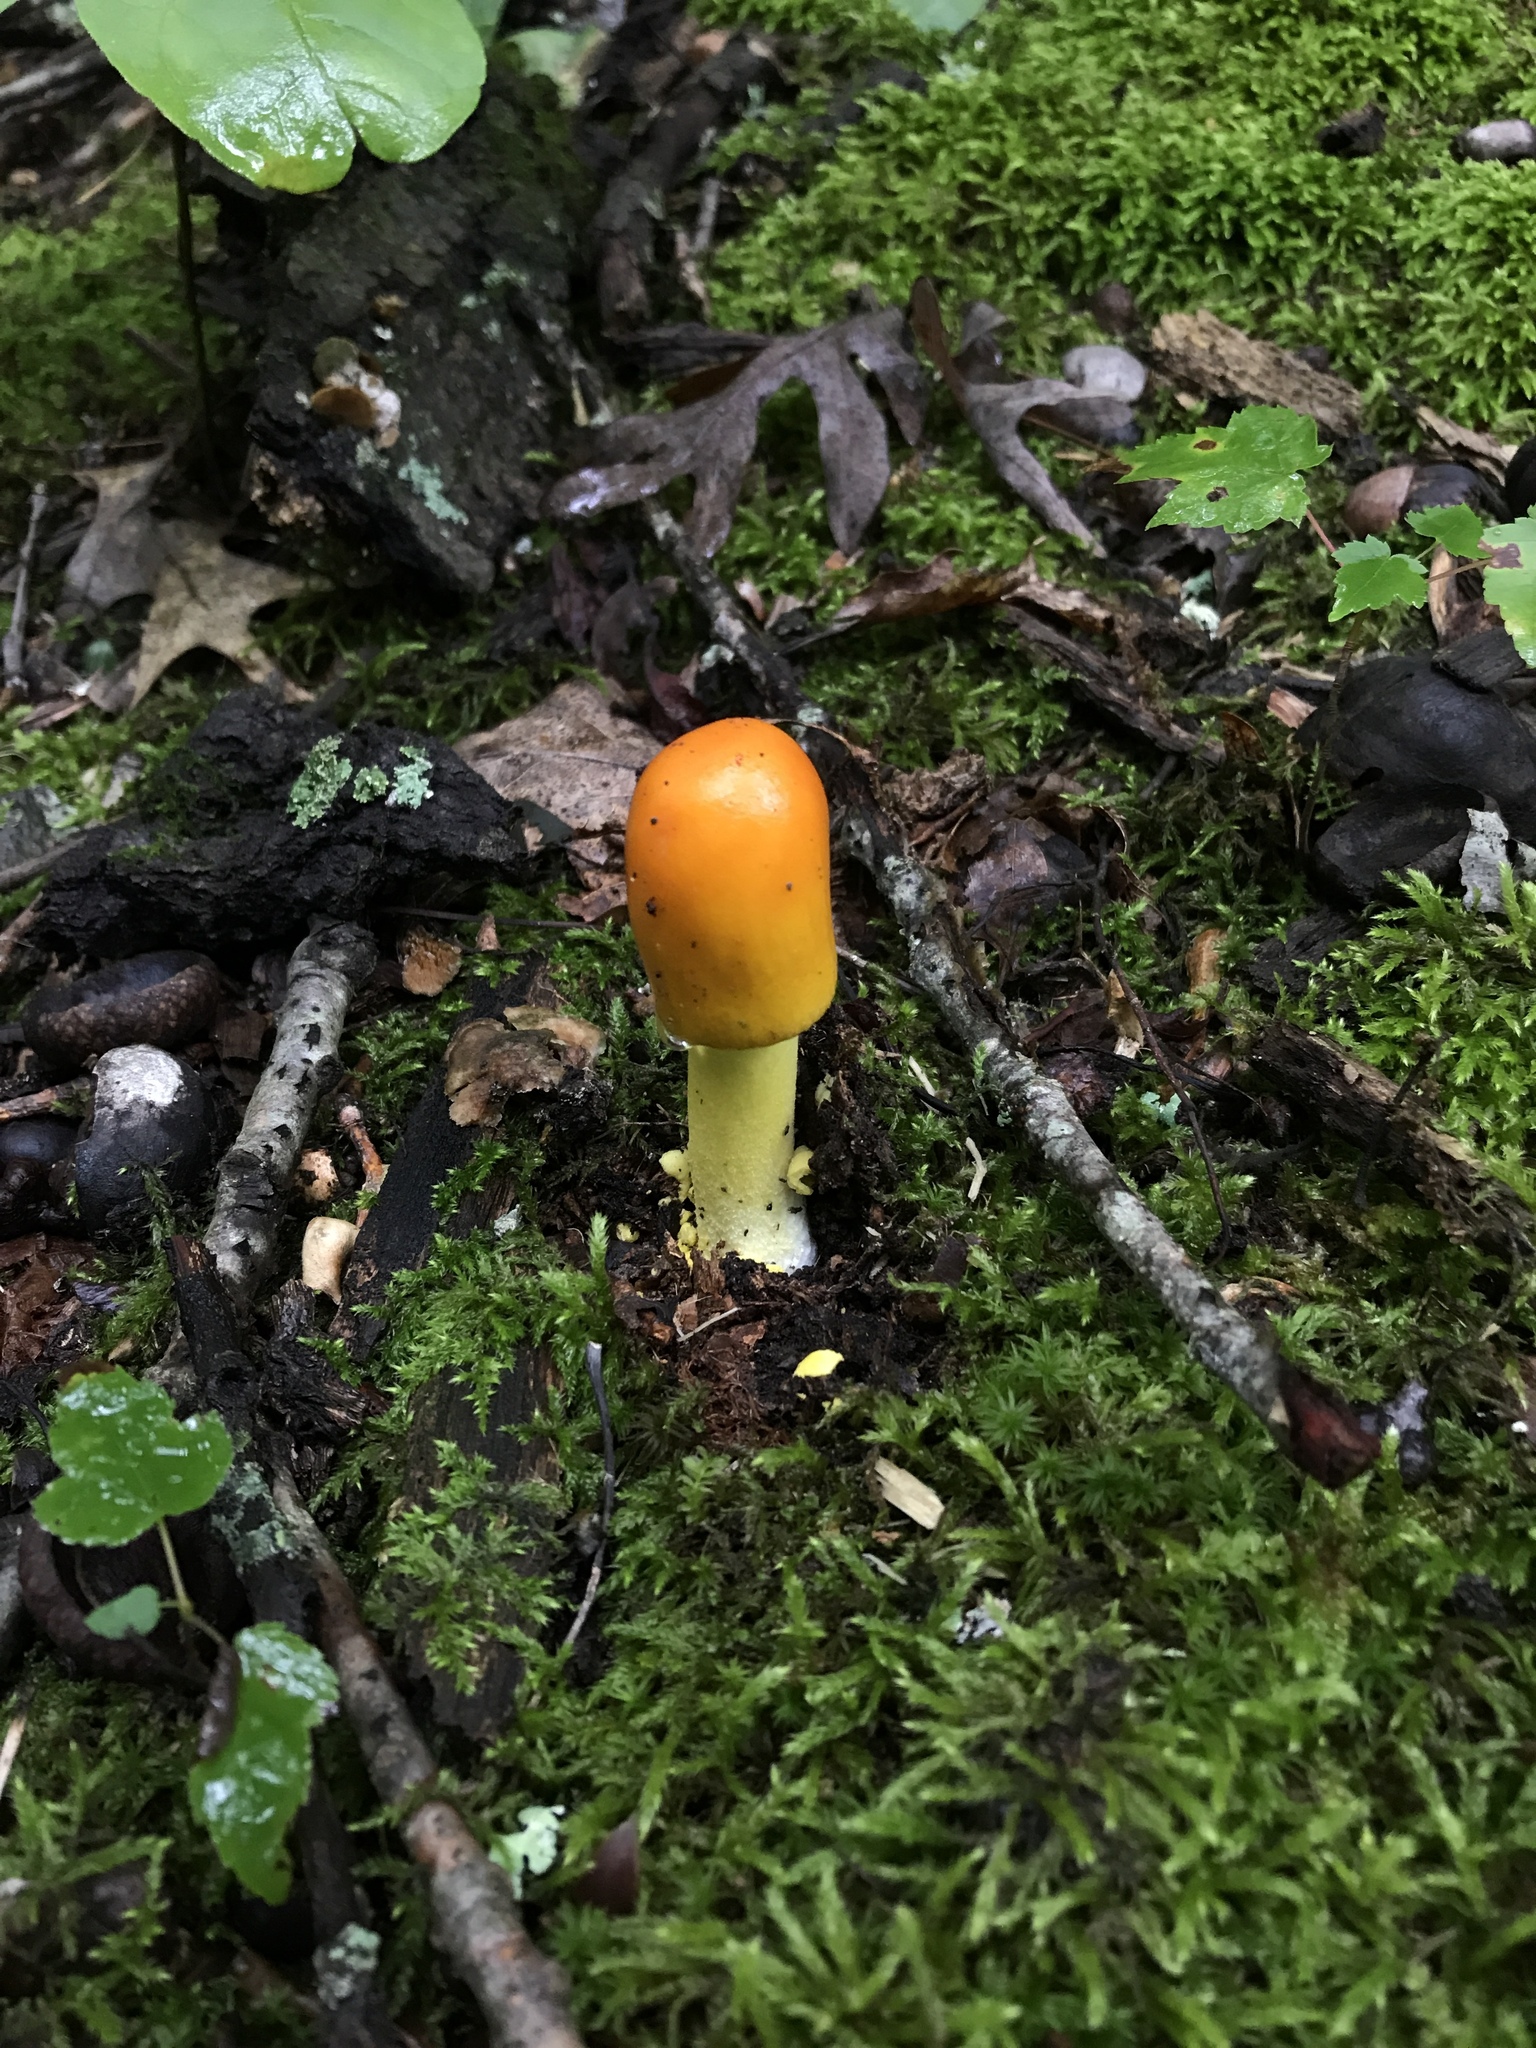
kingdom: Fungi
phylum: Basidiomycota
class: Agaricomycetes
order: Agaricales
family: Amanitaceae
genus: Amanita
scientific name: Amanita flavoconia
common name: Yellow patches
